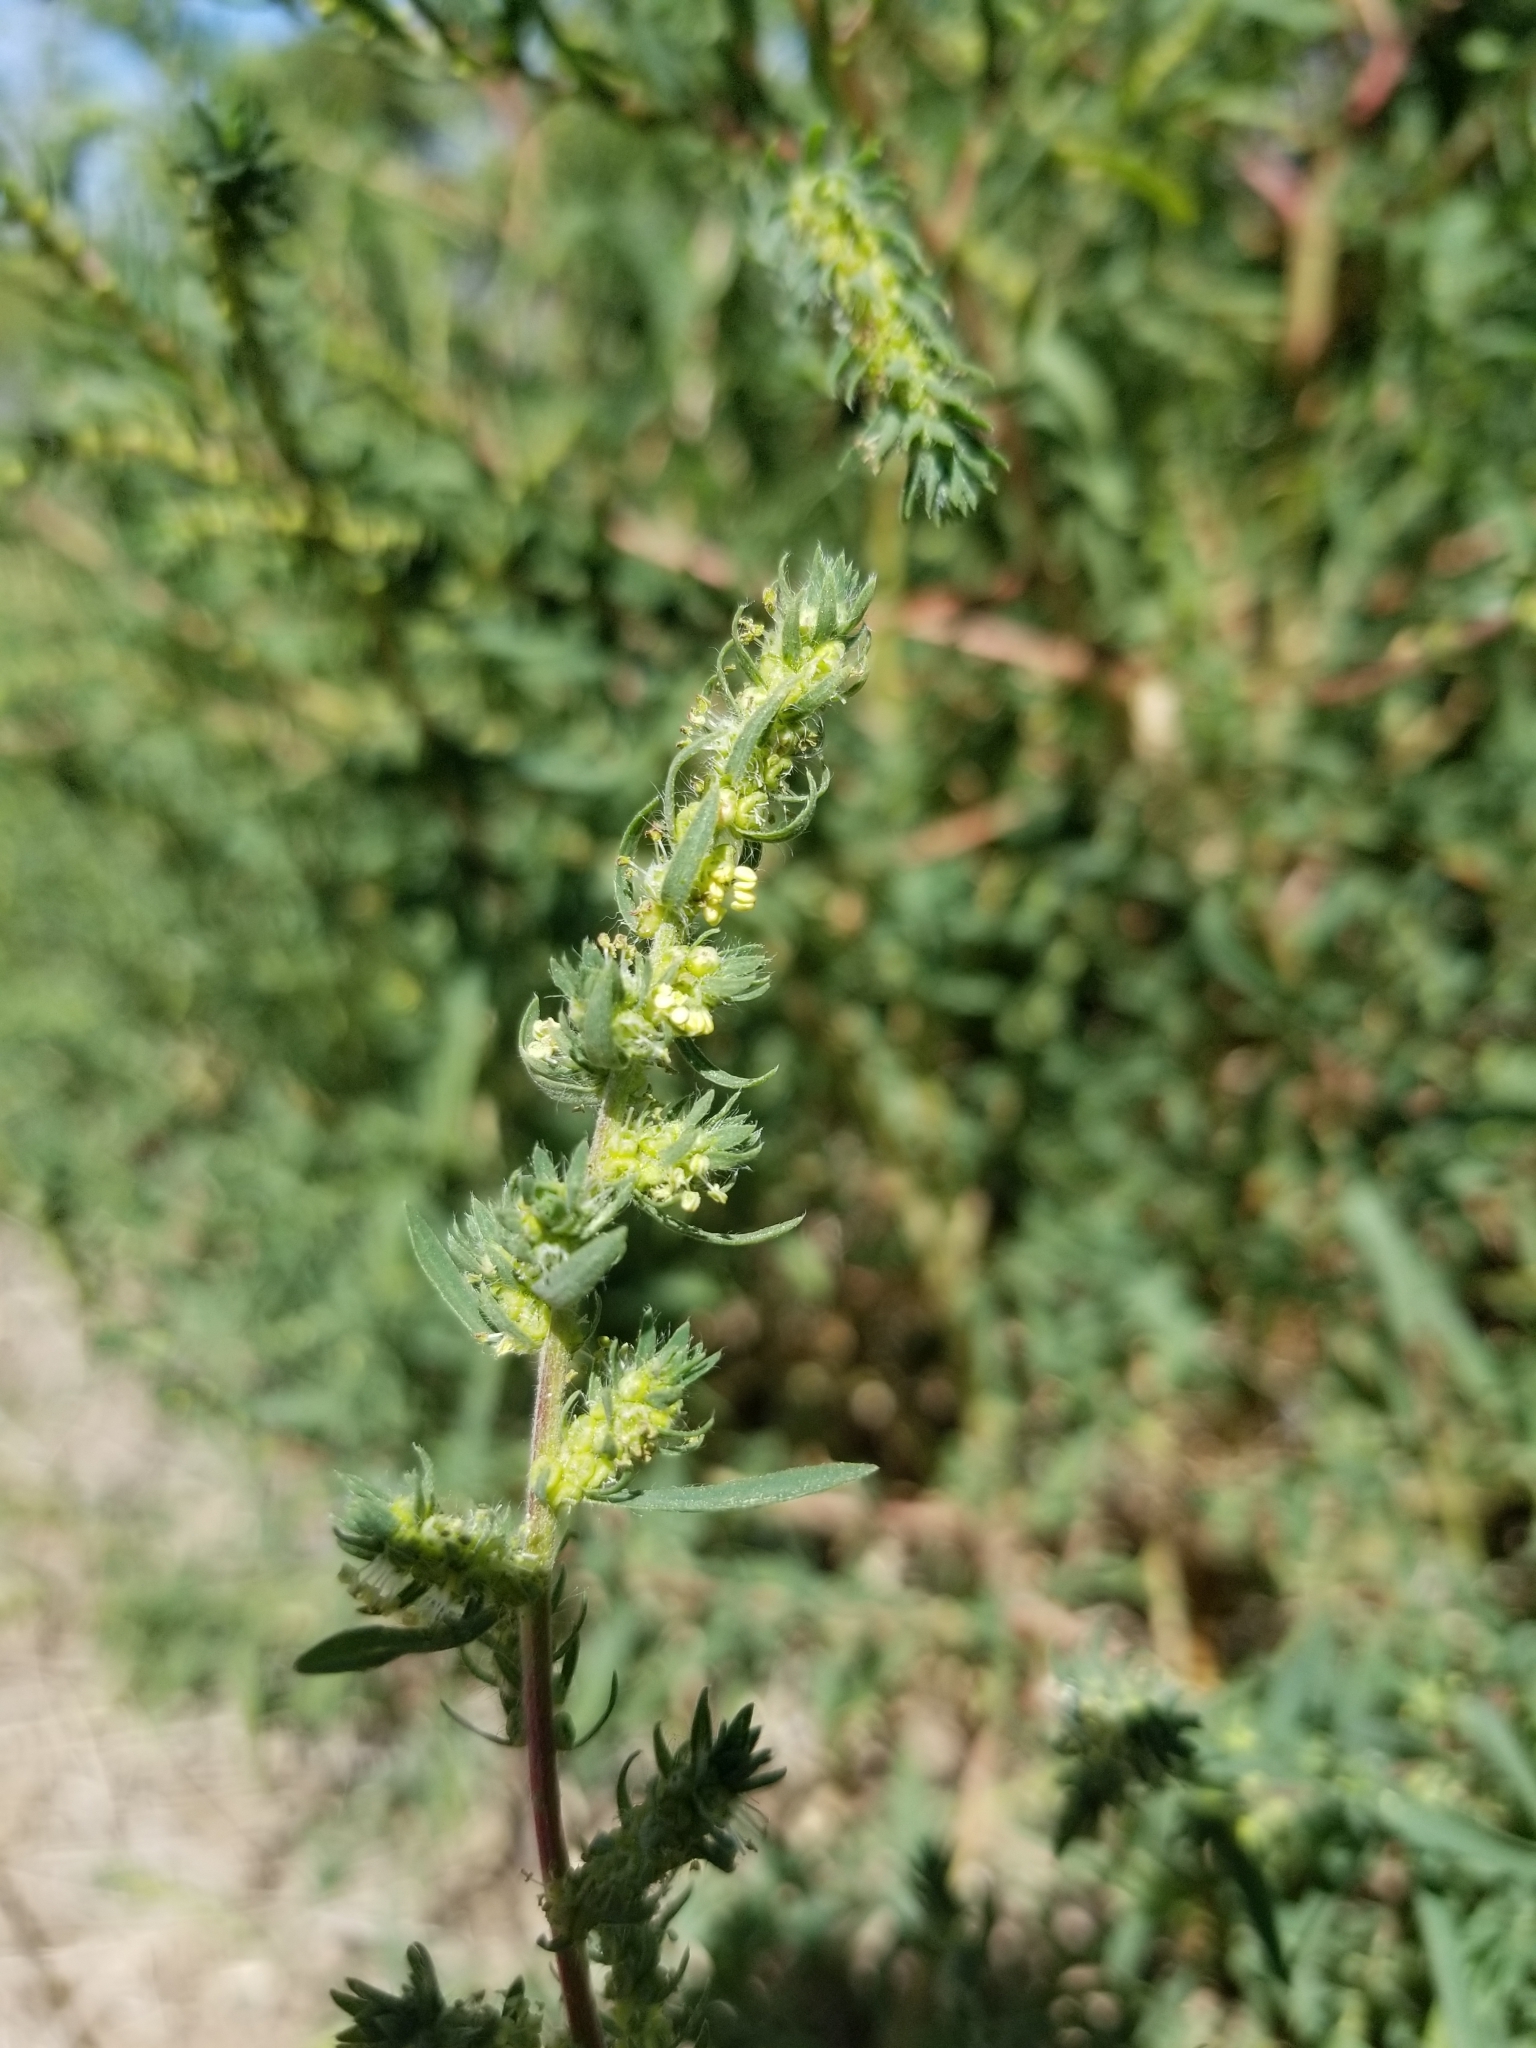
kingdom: Plantae
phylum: Tracheophyta
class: Magnoliopsida
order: Caryophyllales
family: Amaranthaceae
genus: Bassia
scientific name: Bassia scoparia
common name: Belvedere
